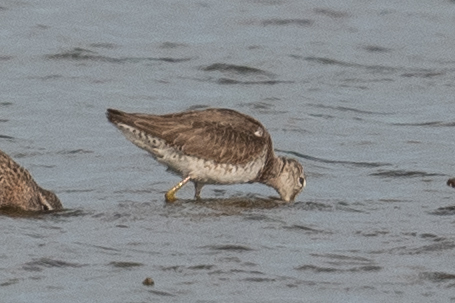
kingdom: Animalia
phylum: Chordata
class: Aves
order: Charadriiformes
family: Scolopacidae
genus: Limnodromus
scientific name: Limnodromus scolopaceus
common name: Long-billed dowitcher
